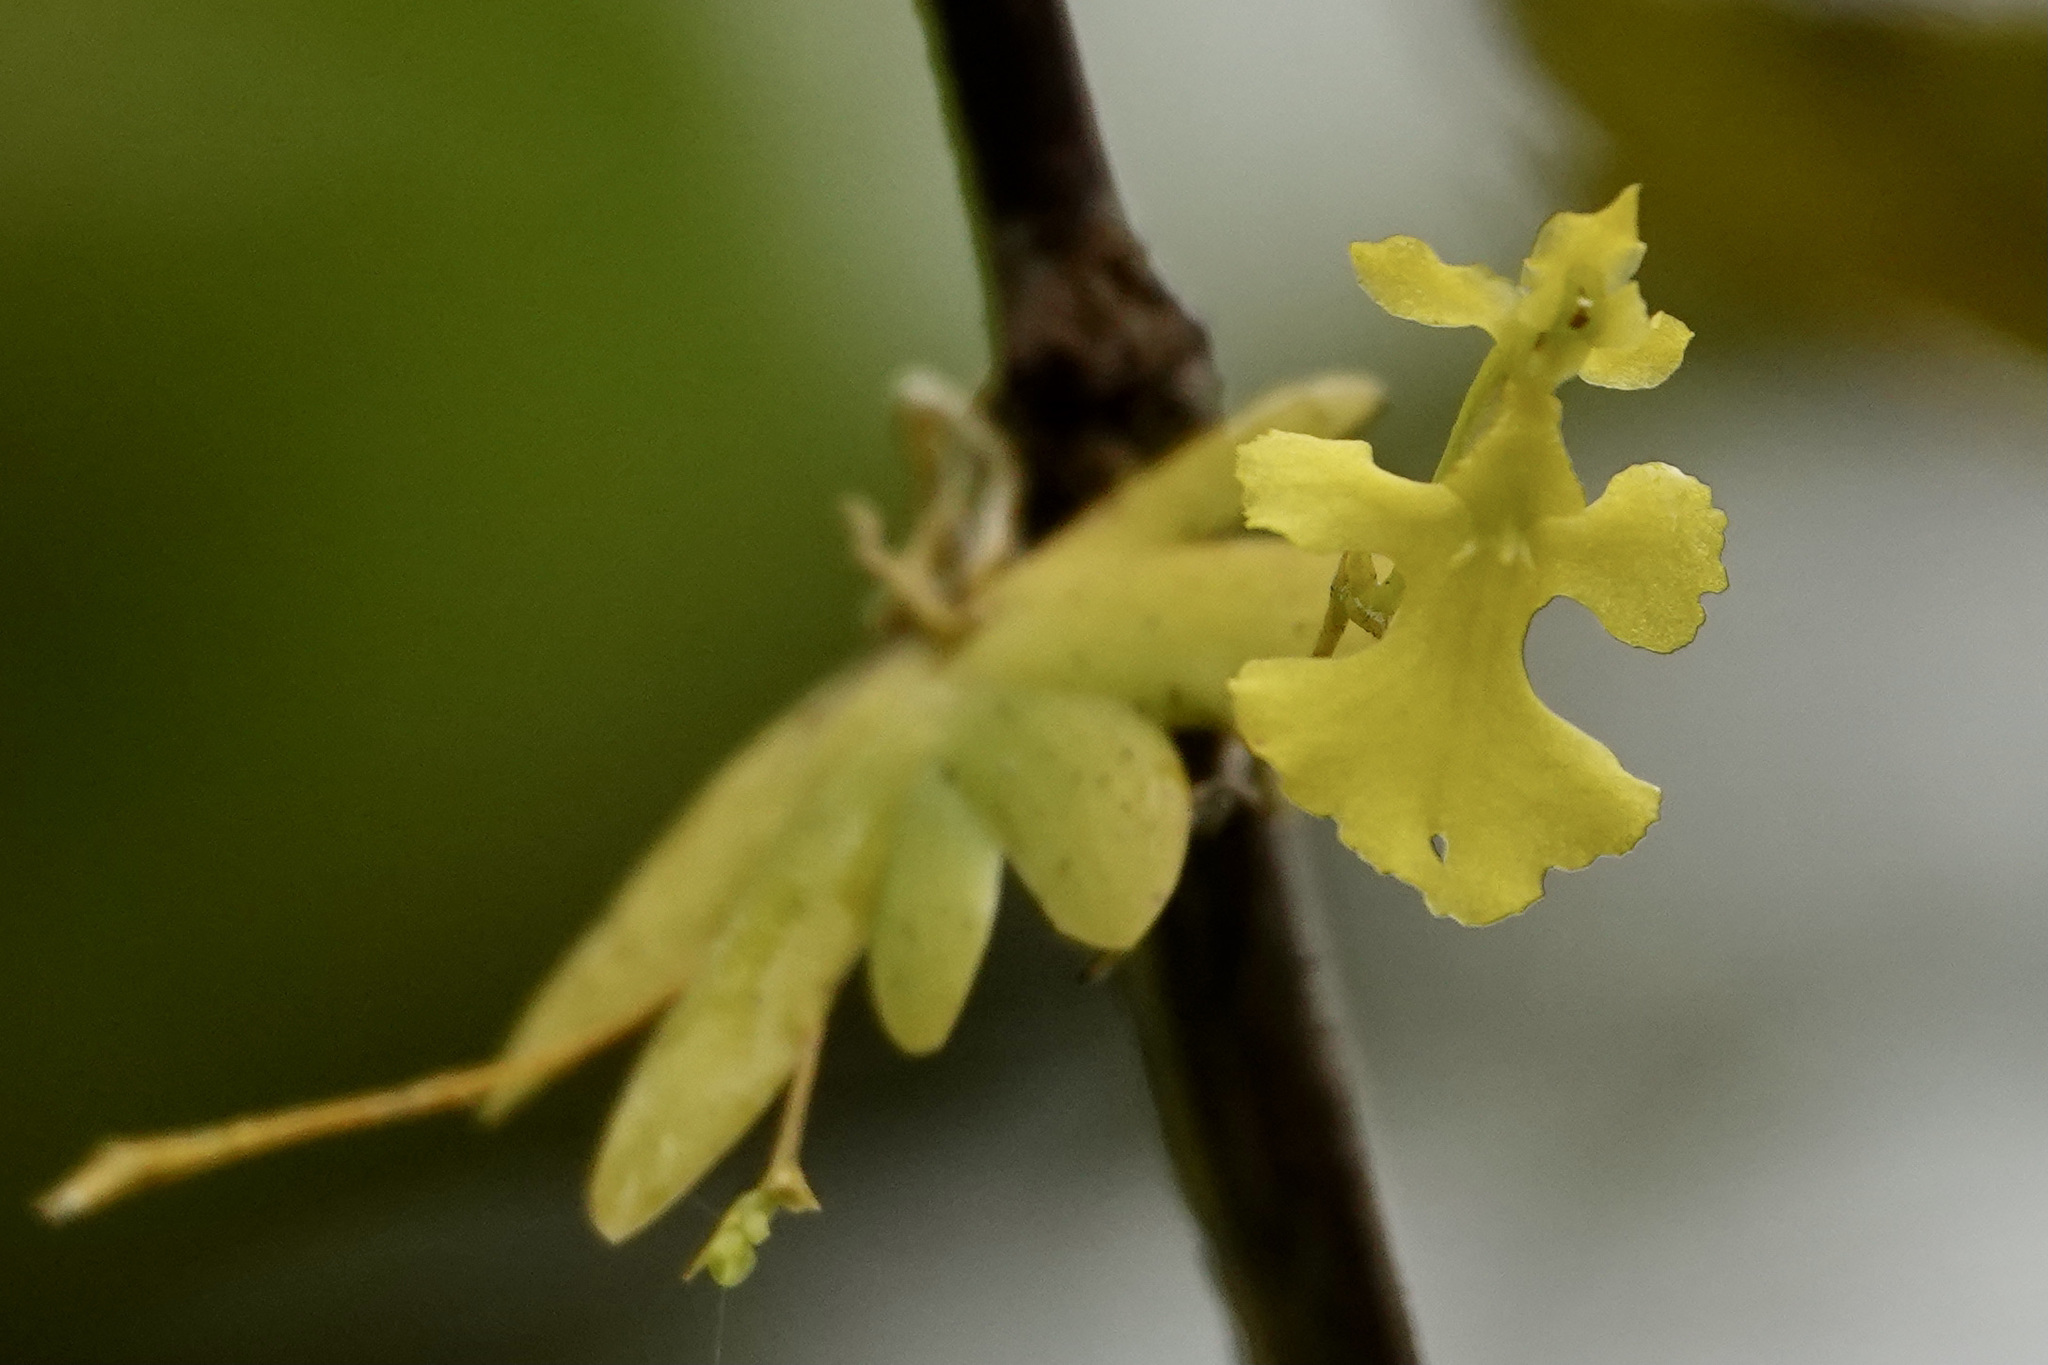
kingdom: Plantae
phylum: Tracheophyta
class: Liliopsida
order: Asparagales
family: Orchidaceae
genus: Erycina
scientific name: Erycina pumilio
